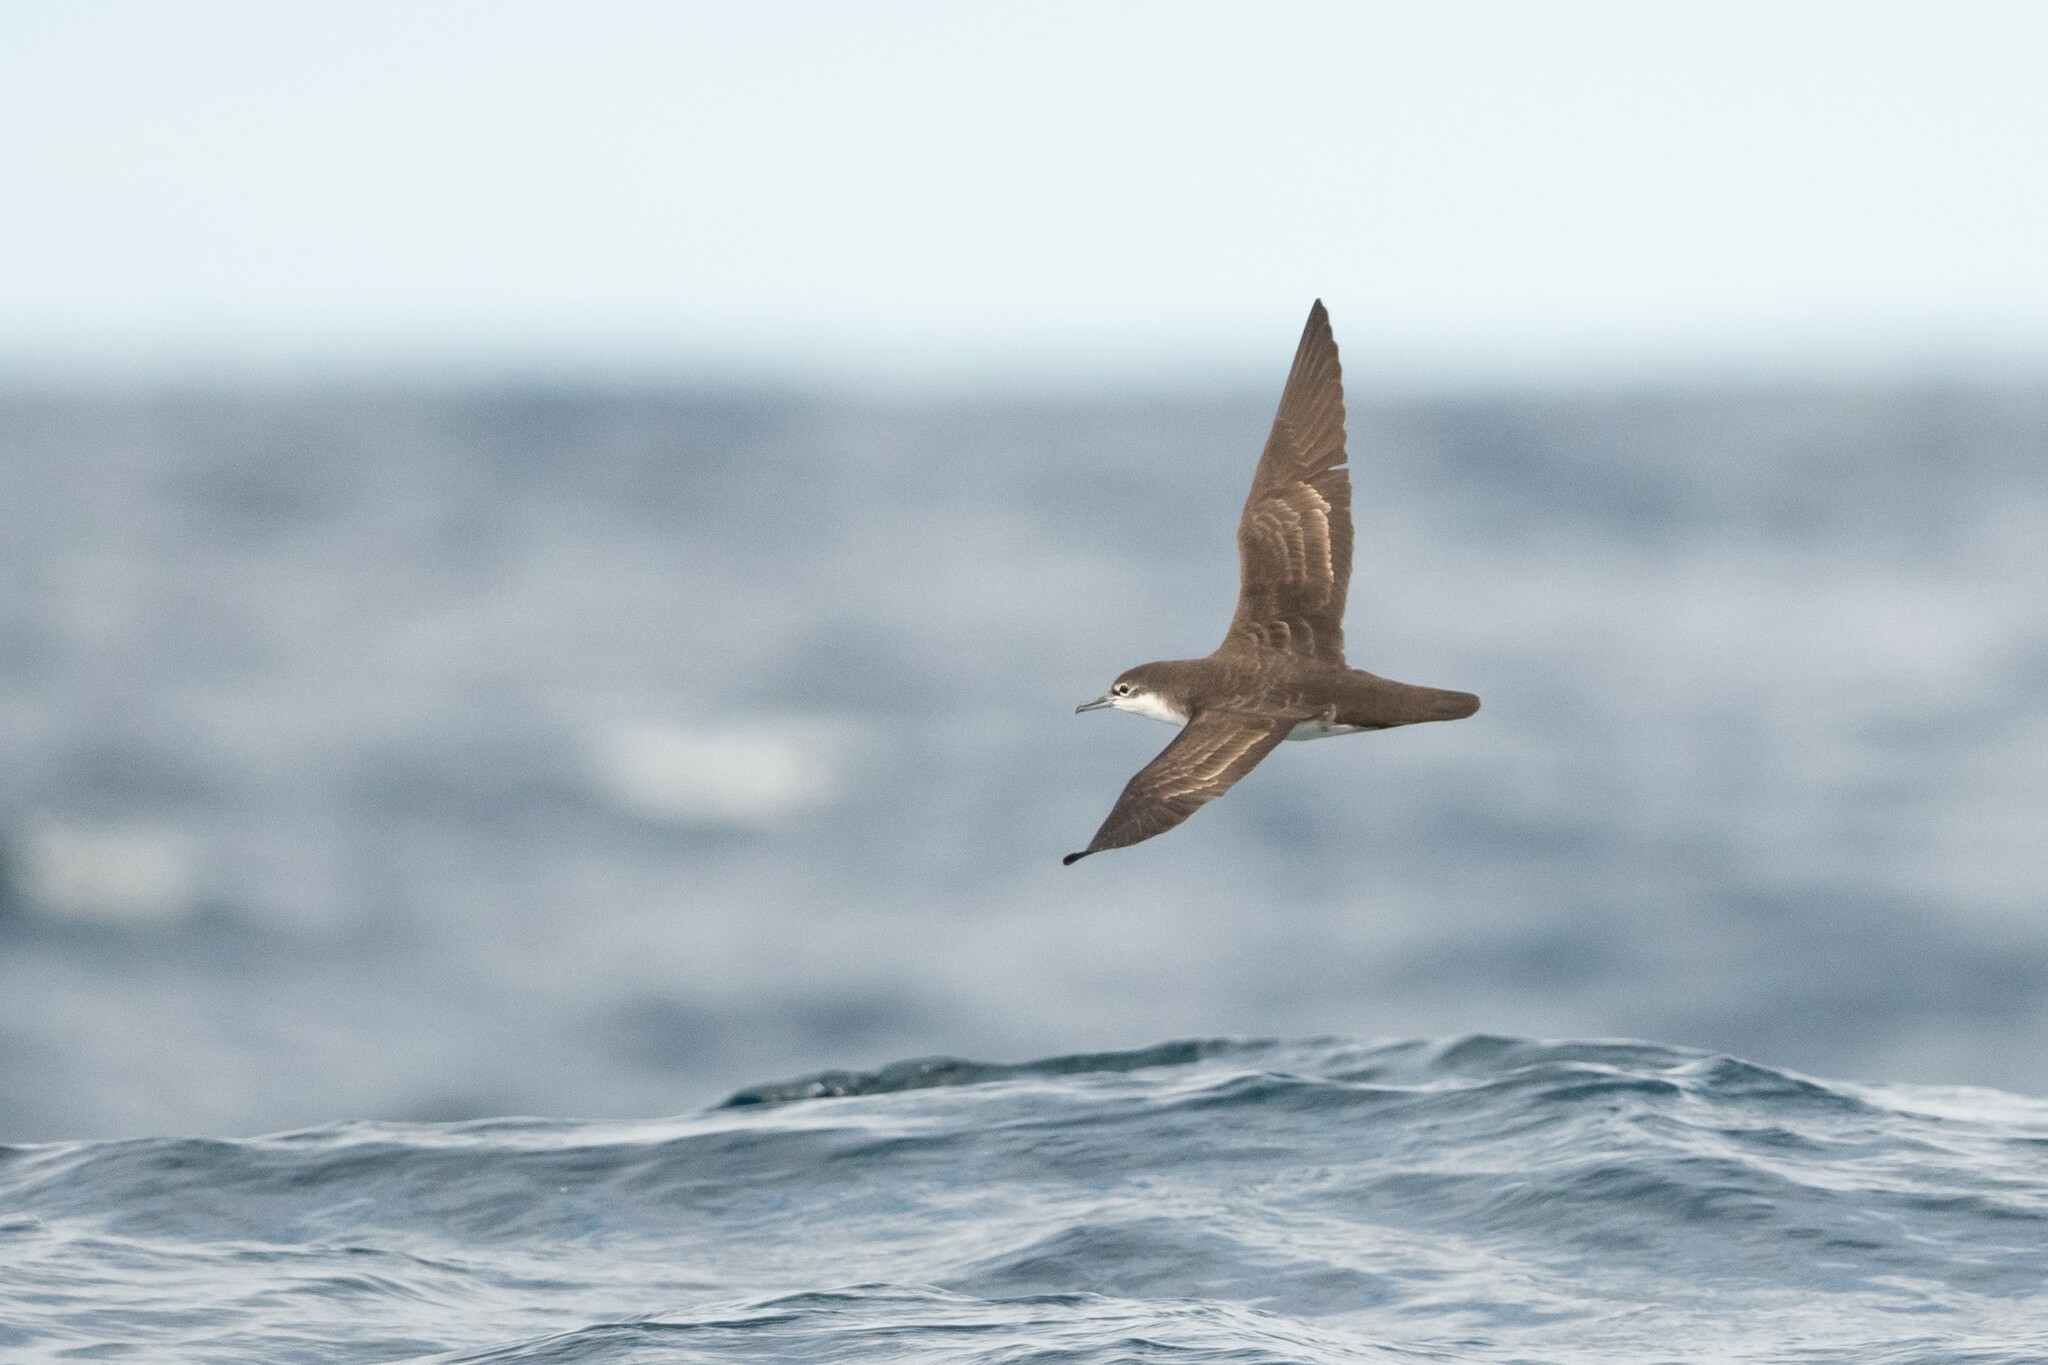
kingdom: Animalia
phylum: Chordata
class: Aves
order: Procellariiformes
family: Procellariidae
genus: Puffinus
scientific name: Puffinus subalaris
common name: Galapagos shearwater
